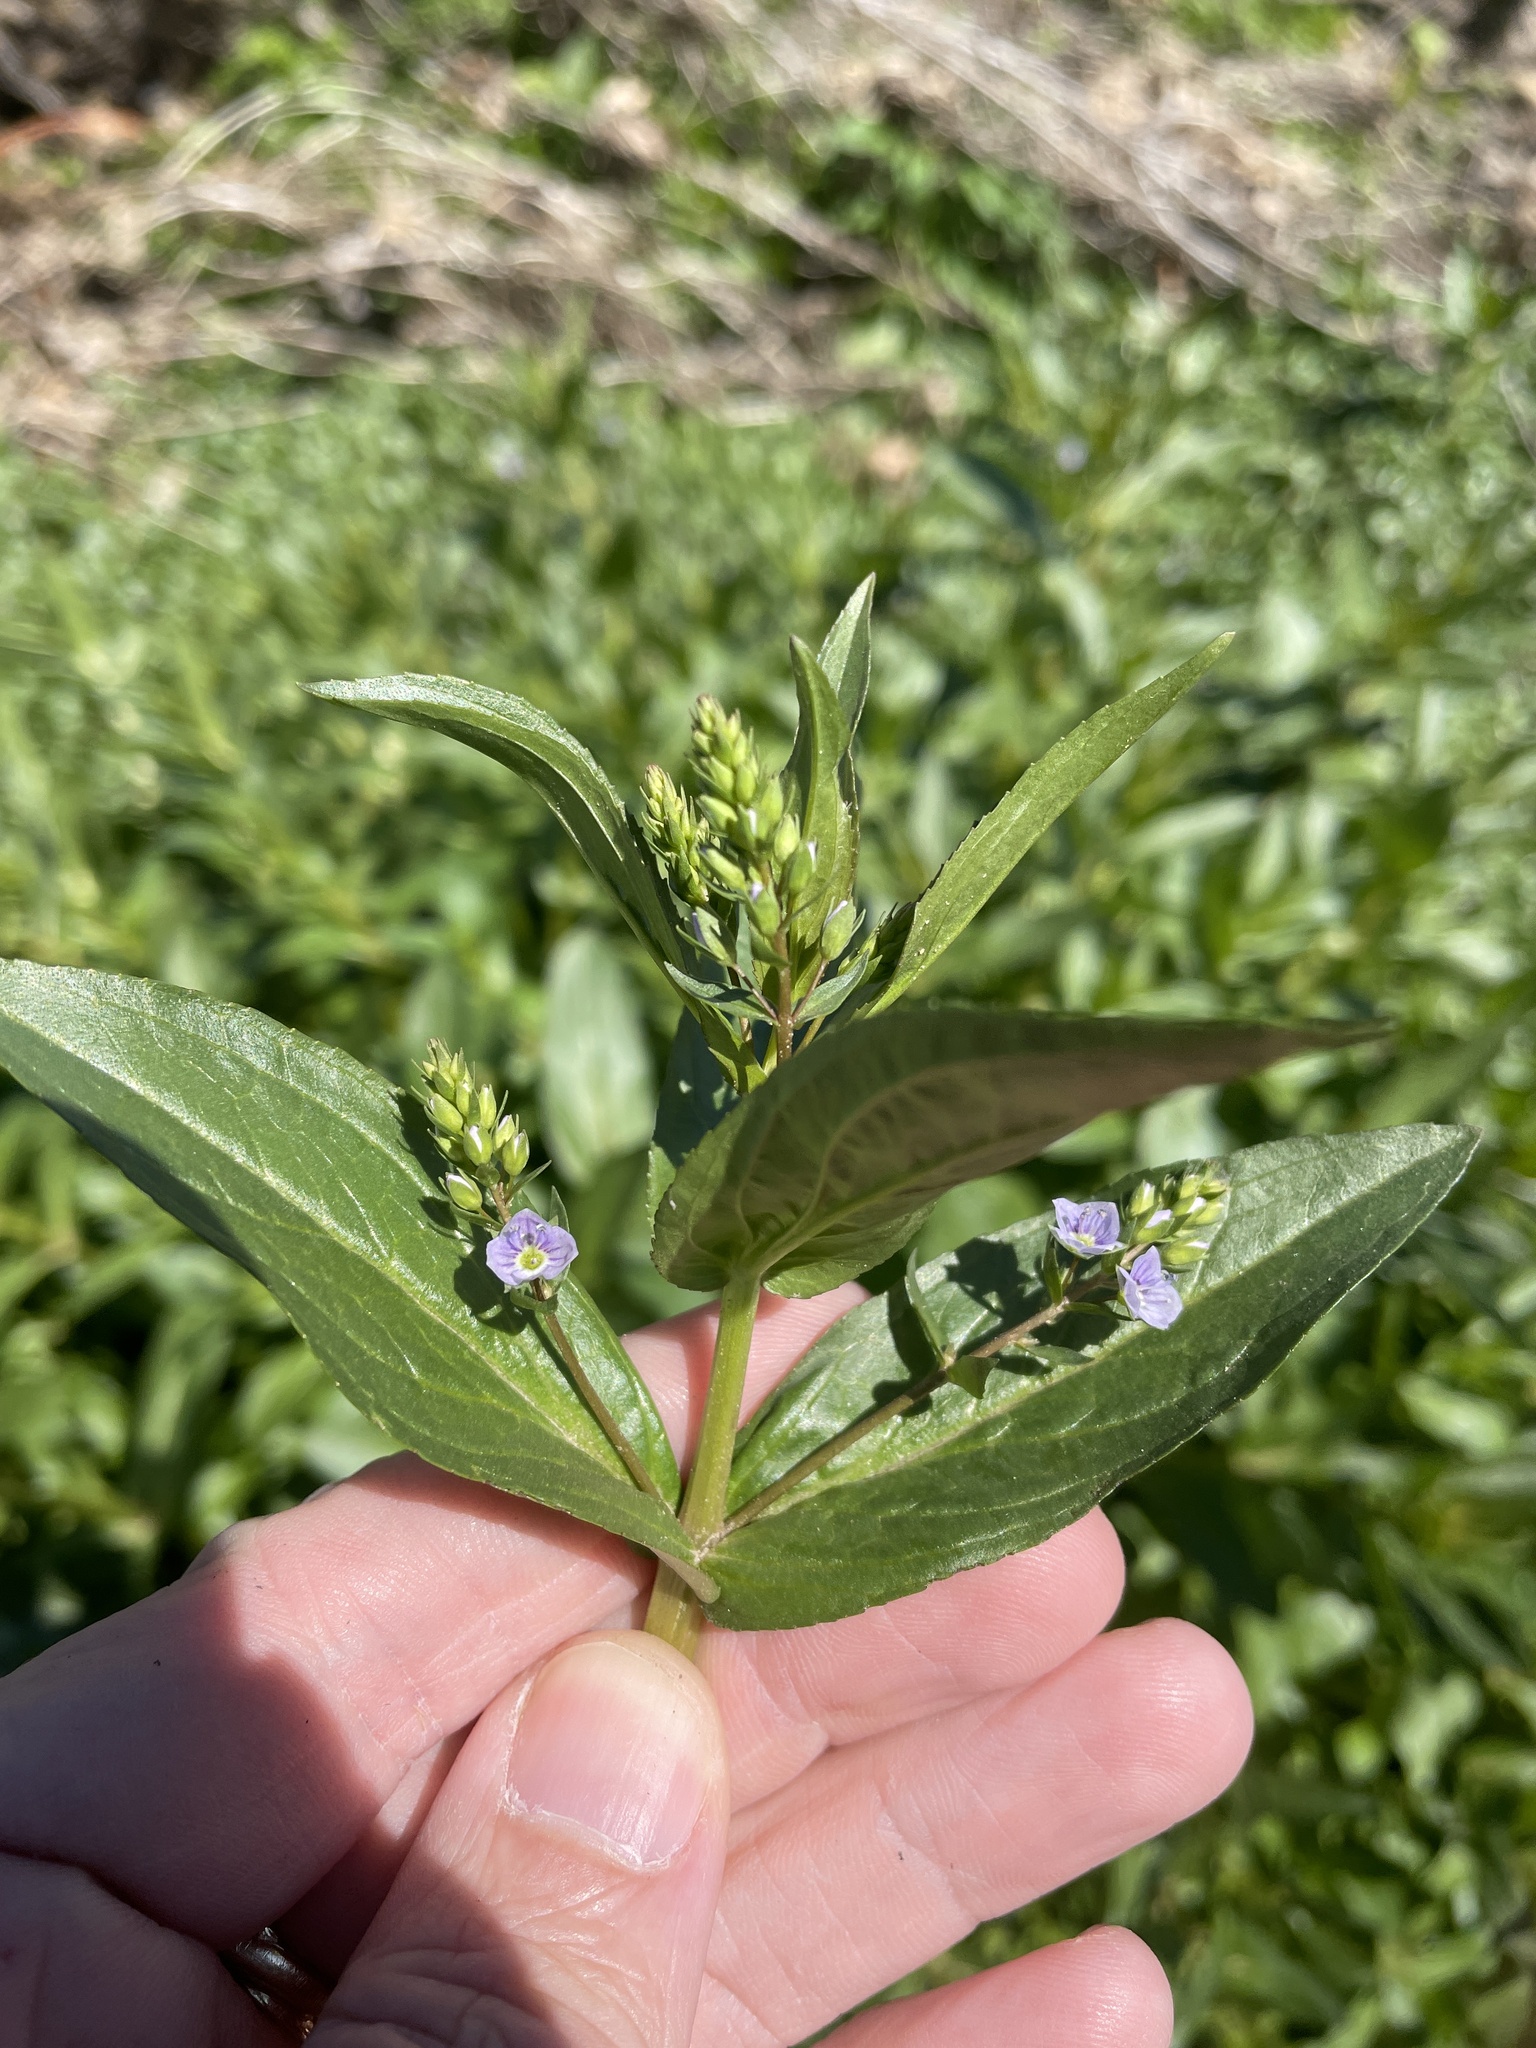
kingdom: Plantae
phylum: Tracheophyta
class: Magnoliopsida
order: Lamiales
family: Plantaginaceae
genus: Veronica
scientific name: Veronica anagallis-aquatica
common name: Water speedwell
